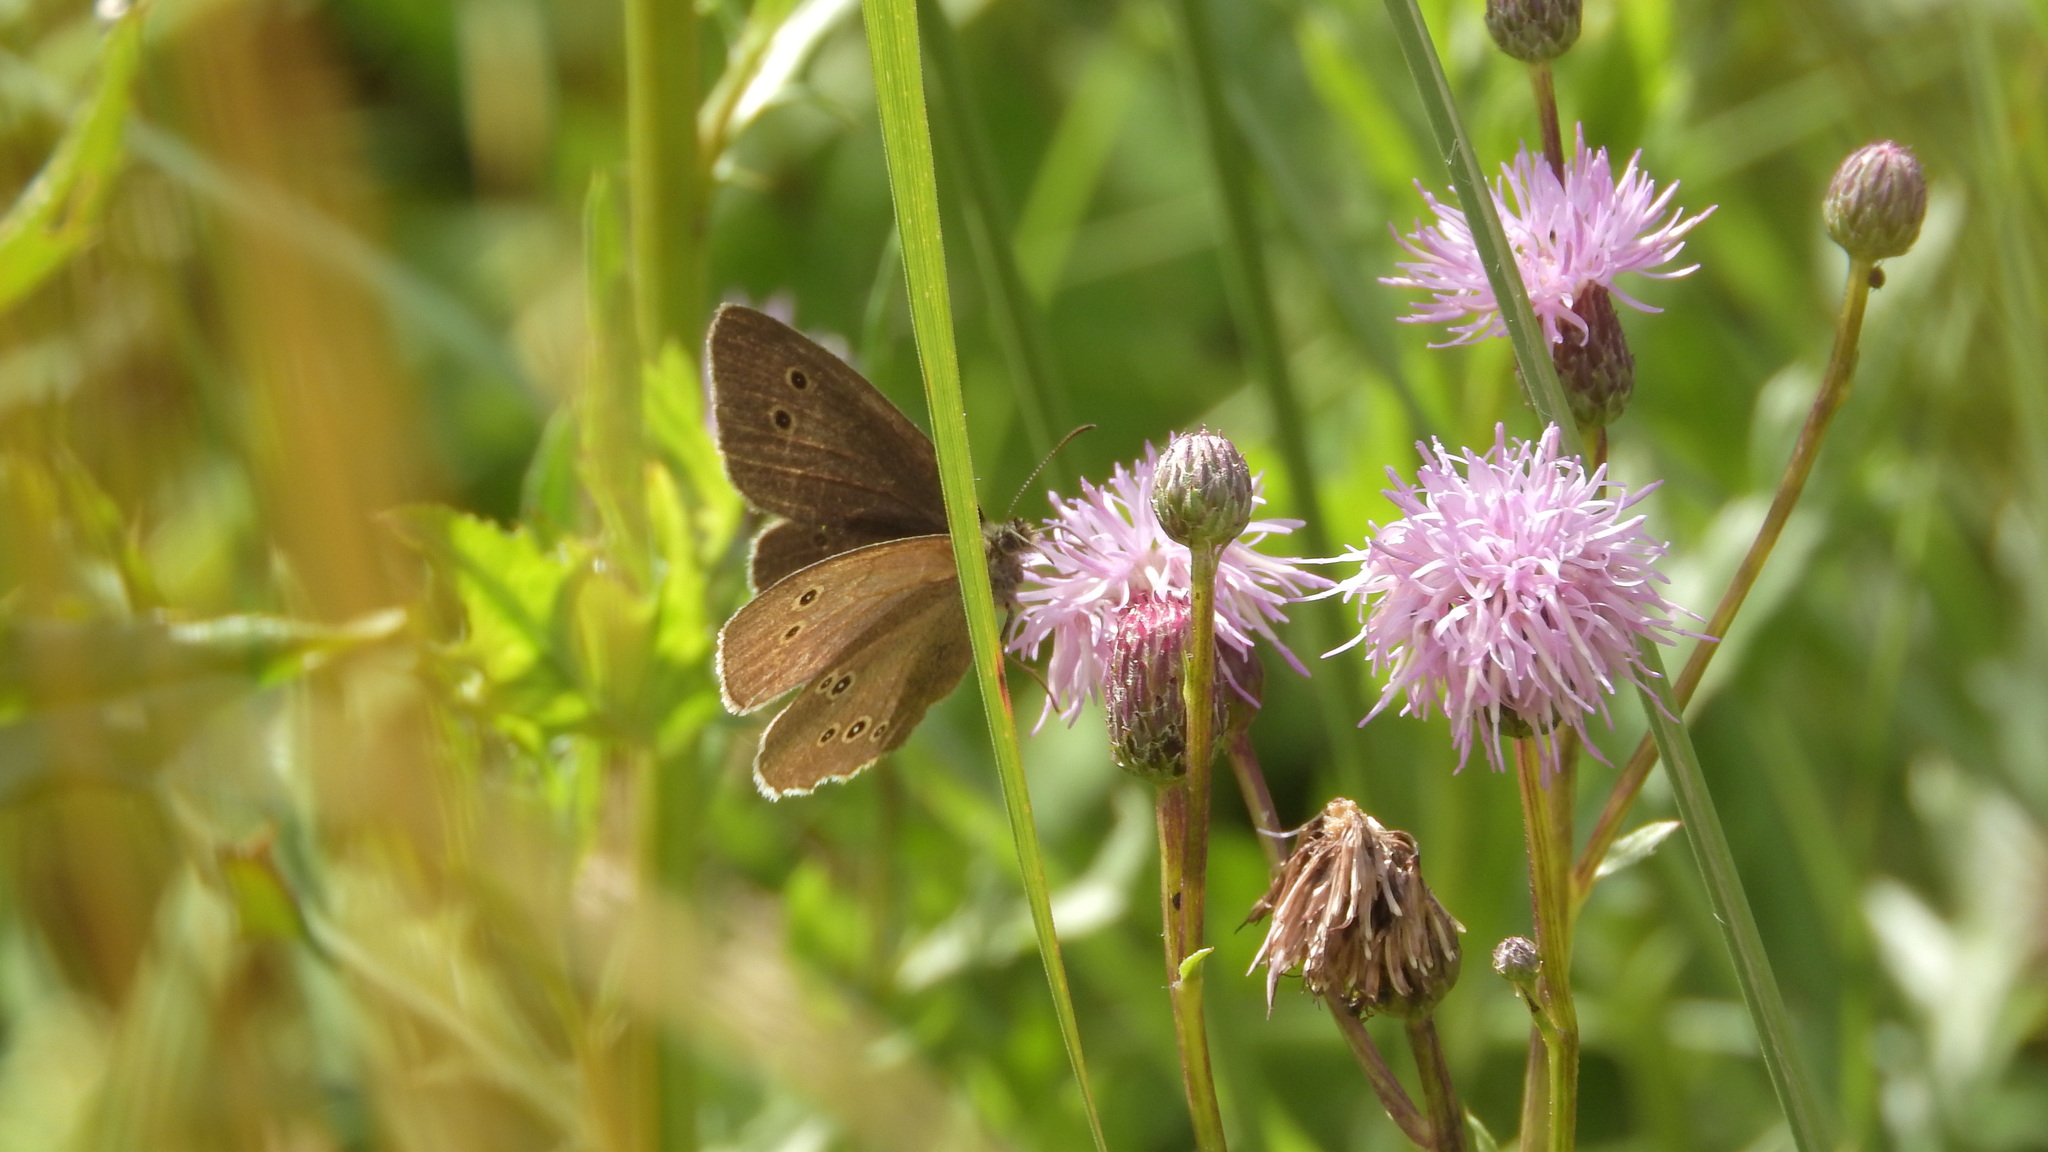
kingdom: Animalia
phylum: Arthropoda
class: Insecta
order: Lepidoptera
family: Nymphalidae
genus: Aphantopus
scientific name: Aphantopus hyperantus
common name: Ringlet
